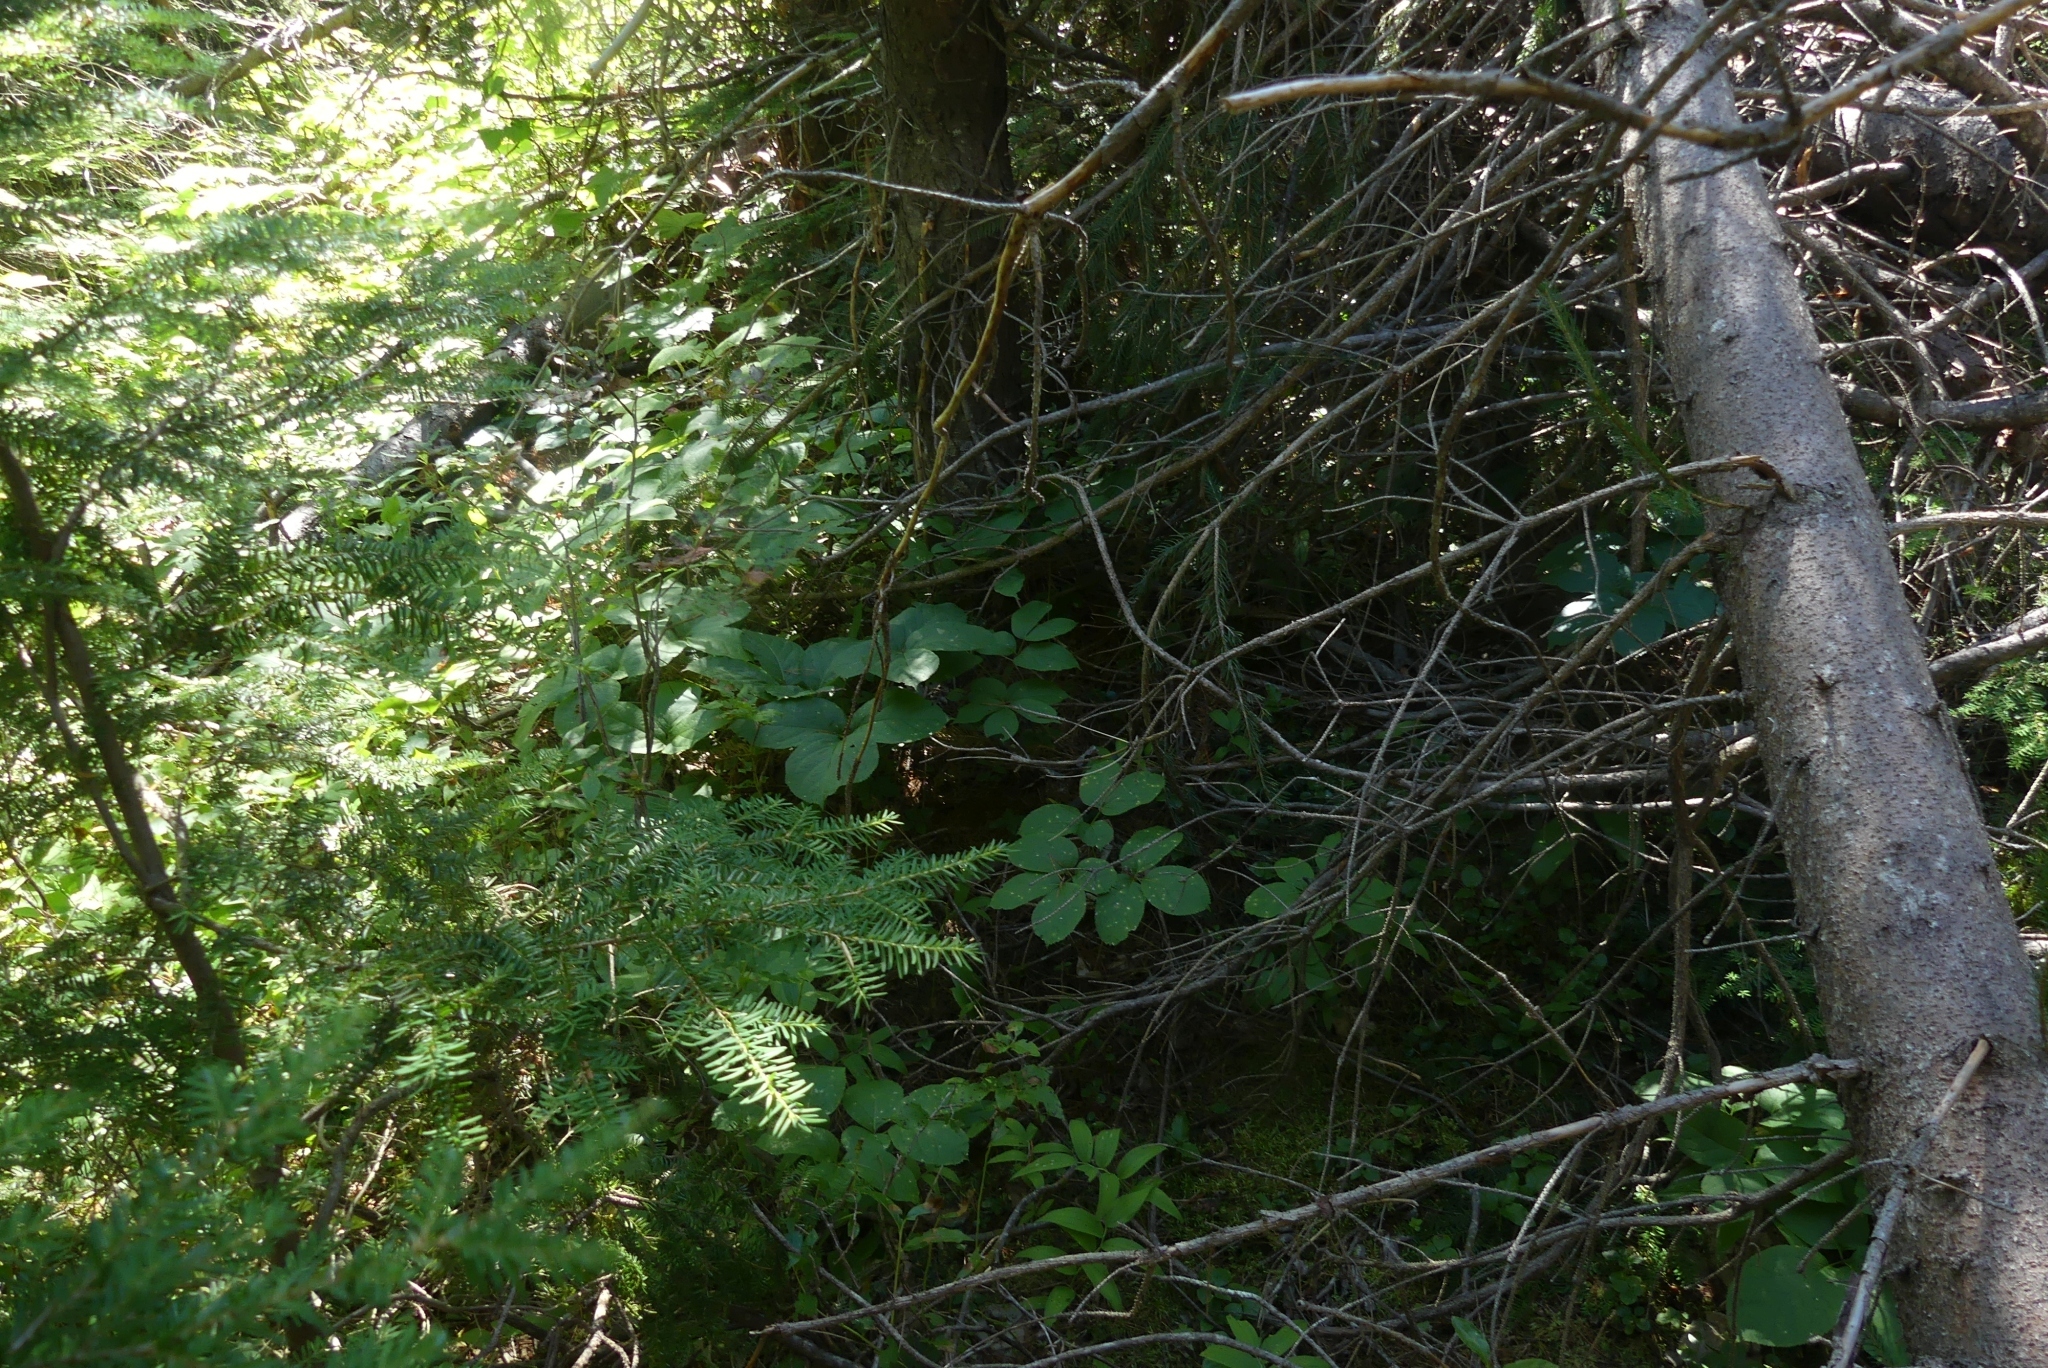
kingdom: Plantae
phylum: Tracheophyta
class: Magnoliopsida
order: Apiales
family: Araliaceae
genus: Aralia
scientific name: Aralia nudicaulis
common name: Wild sarsaparilla
